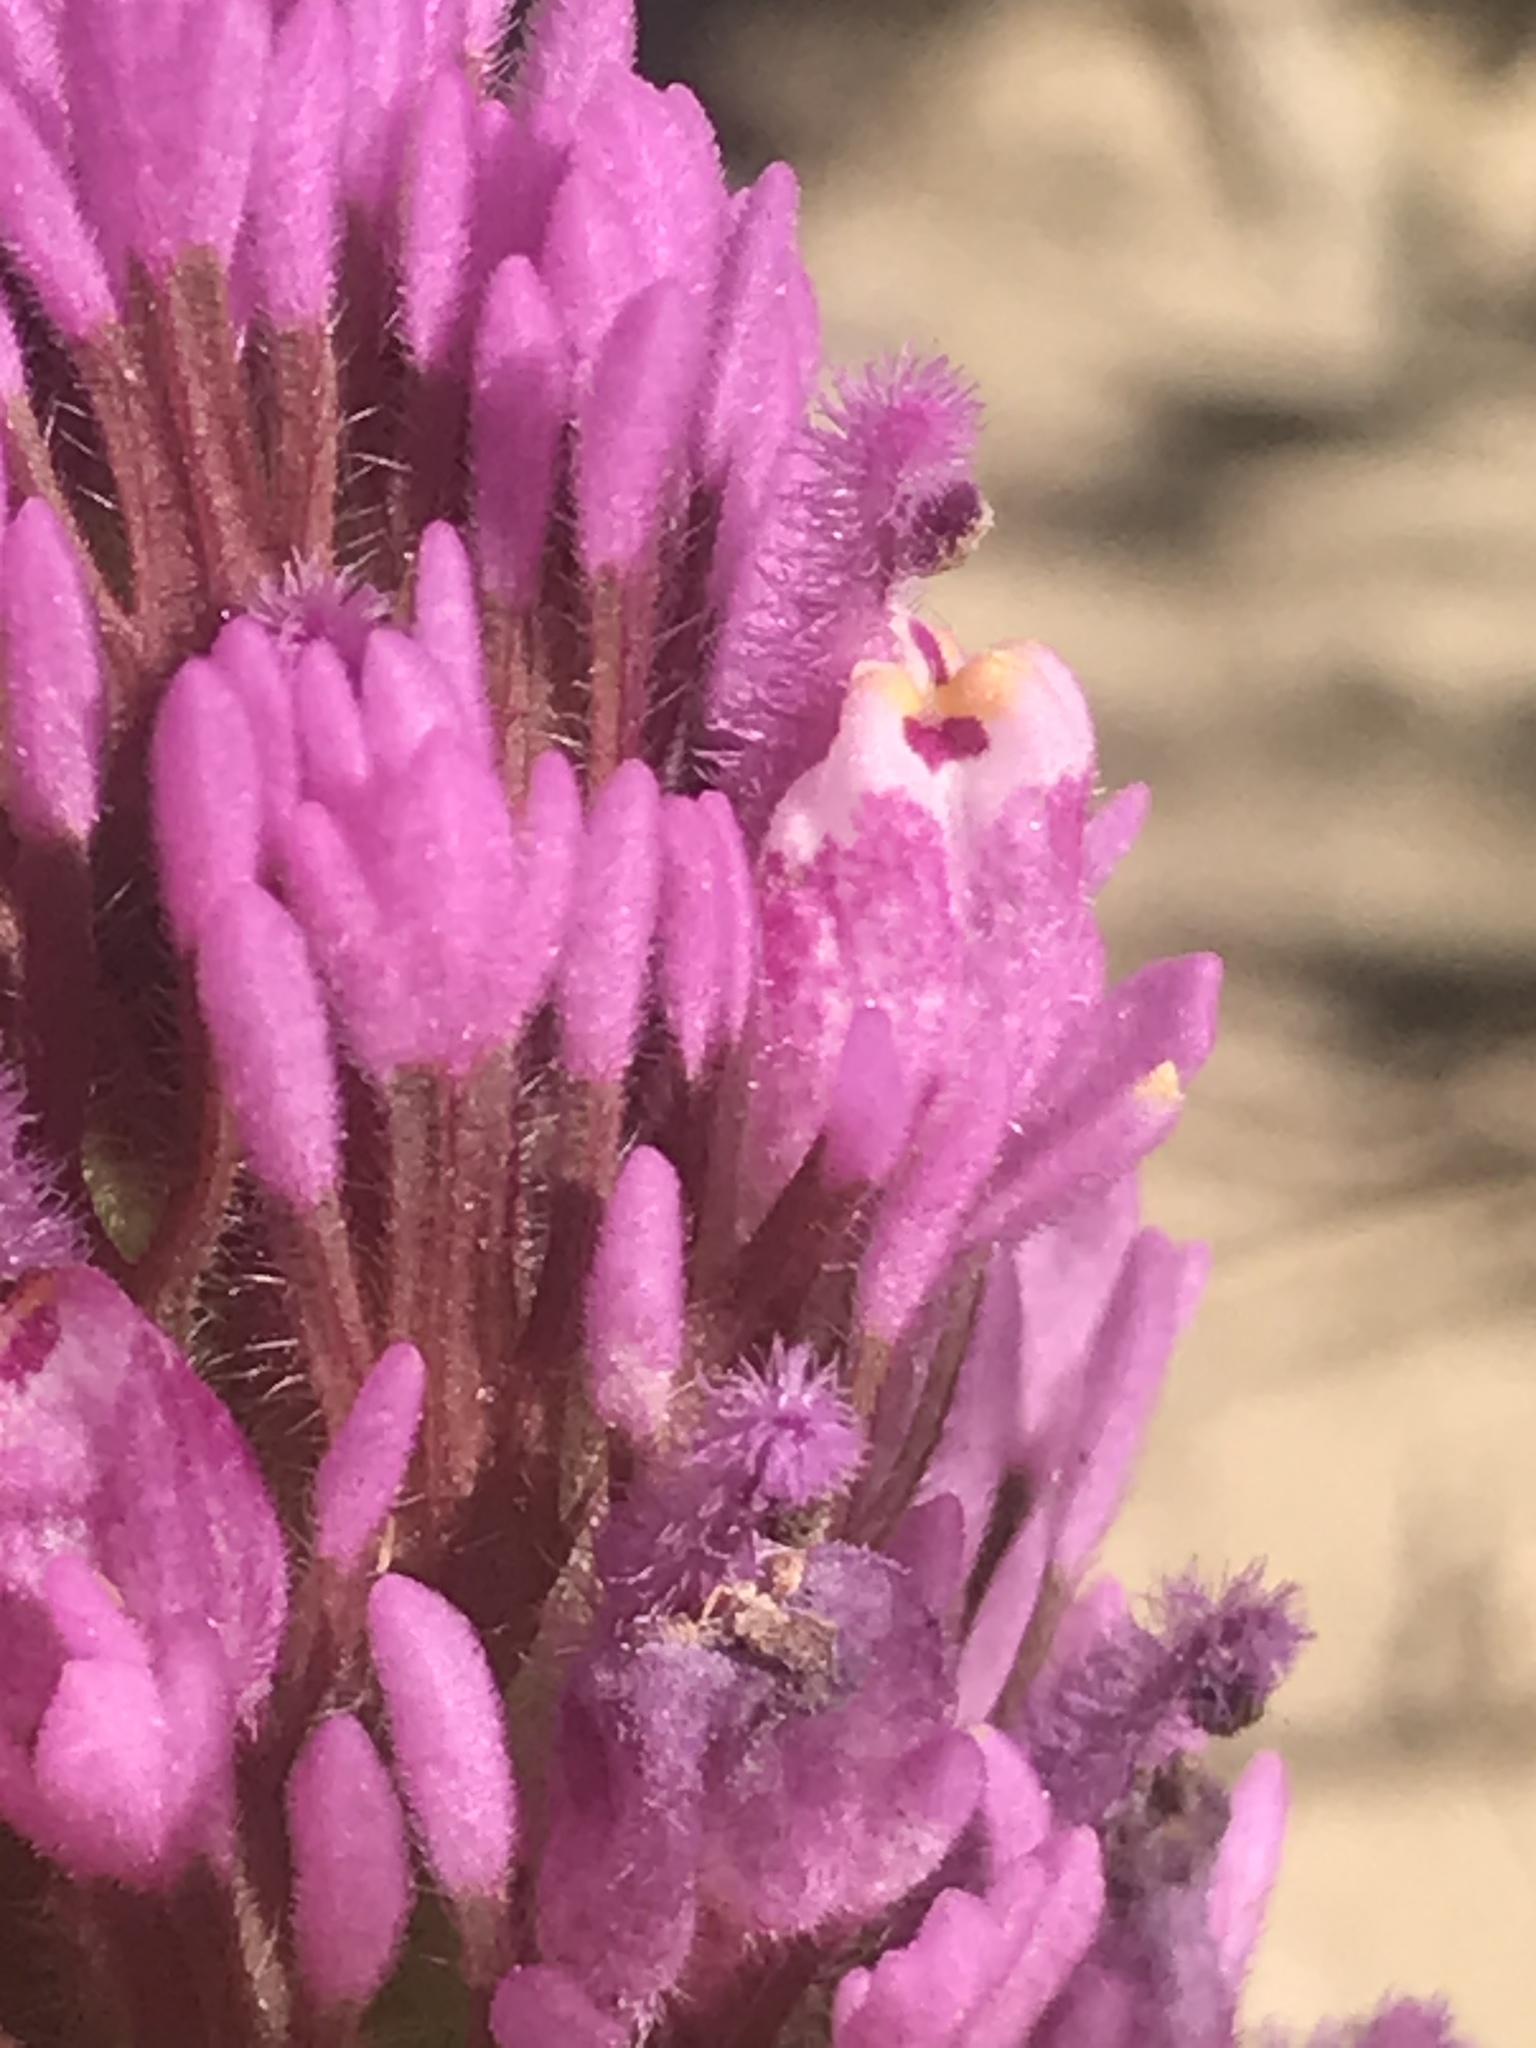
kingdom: Plantae
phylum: Tracheophyta
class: Magnoliopsida
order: Lamiales
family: Orobanchaceae
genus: Castilleja
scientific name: Castilleja exserta
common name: Purple owl-clover
